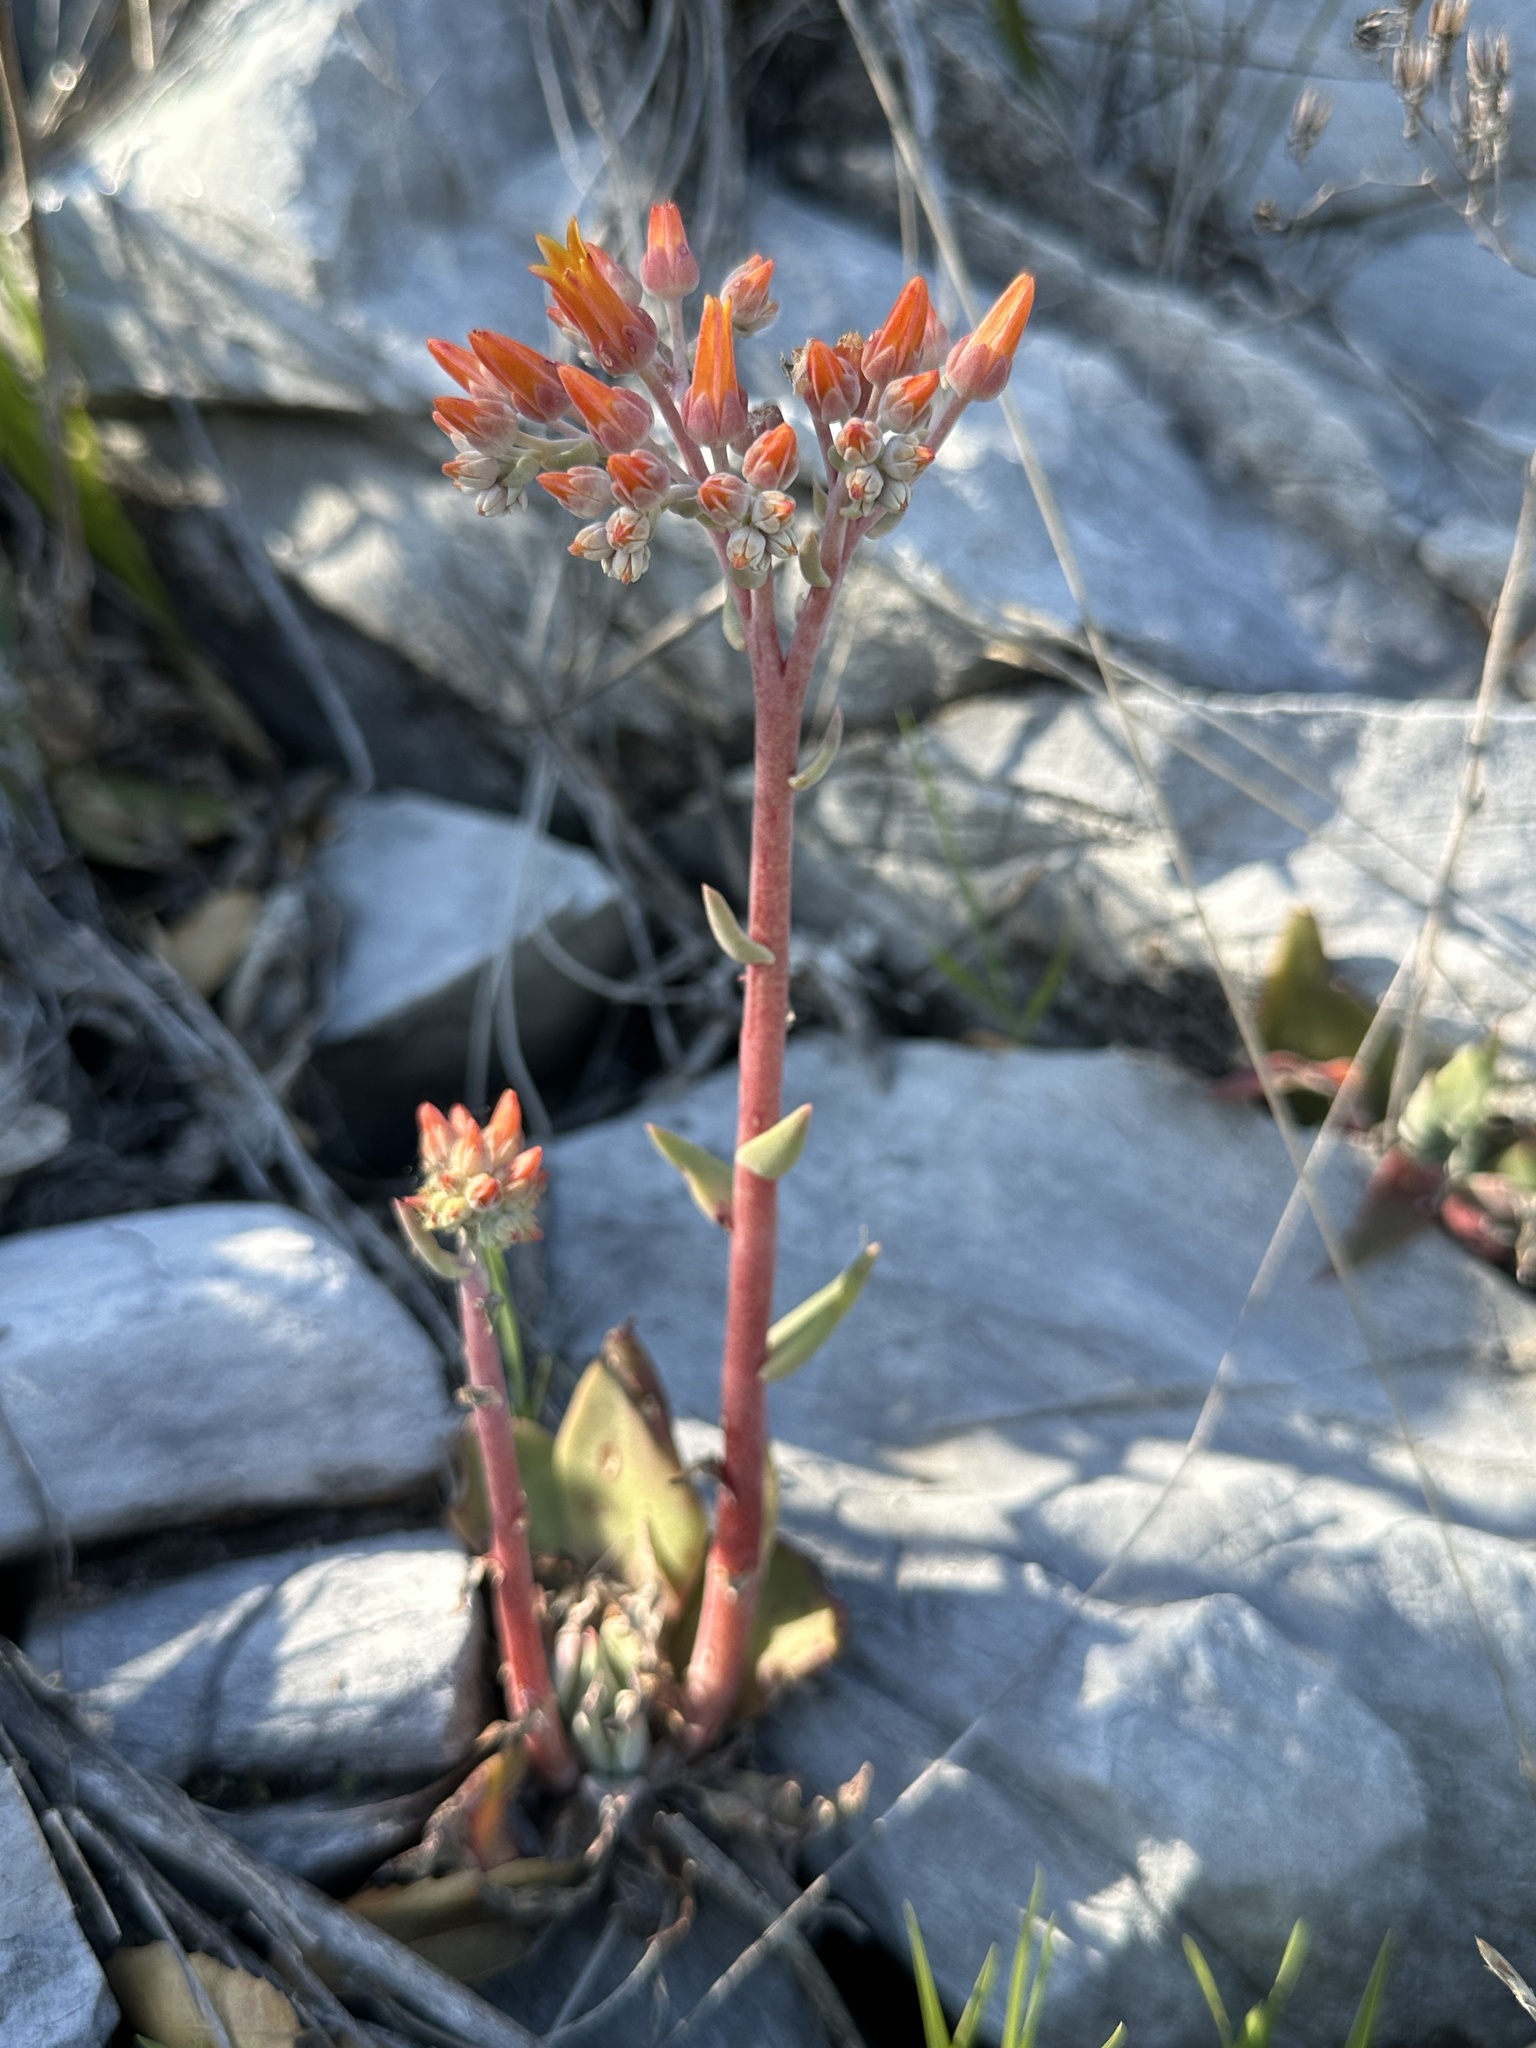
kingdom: Plantae
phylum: Tracheophyta
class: Magnoliopsida
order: Saxifragales
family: Crassulaceae
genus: Dudleya
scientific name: Dudleya cymosa
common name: Canyon dudleya
